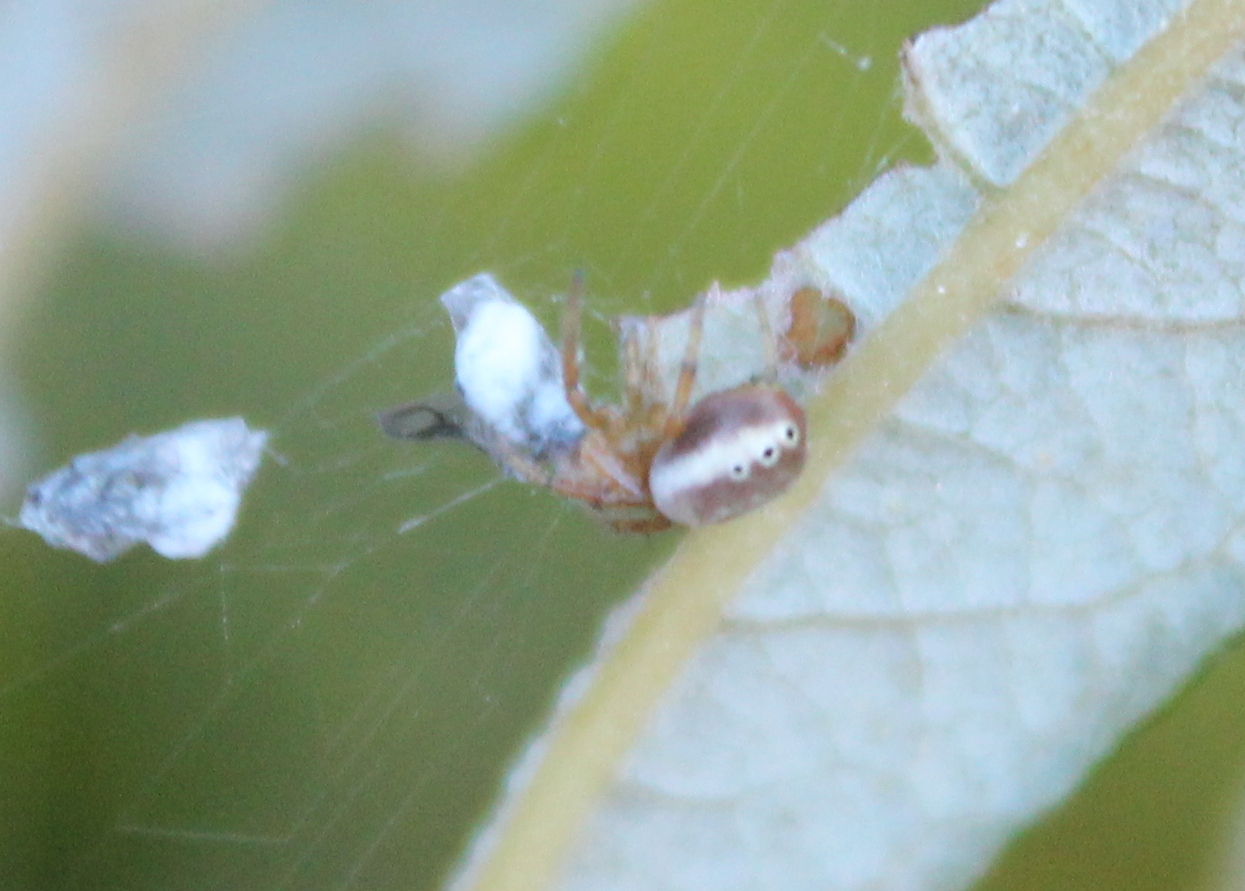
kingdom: Animalia
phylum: Arthropoda
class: Arachnida
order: Araneae
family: Araneidae
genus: Araniella
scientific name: Araniella displicata
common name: Sixspotted orb weaver
